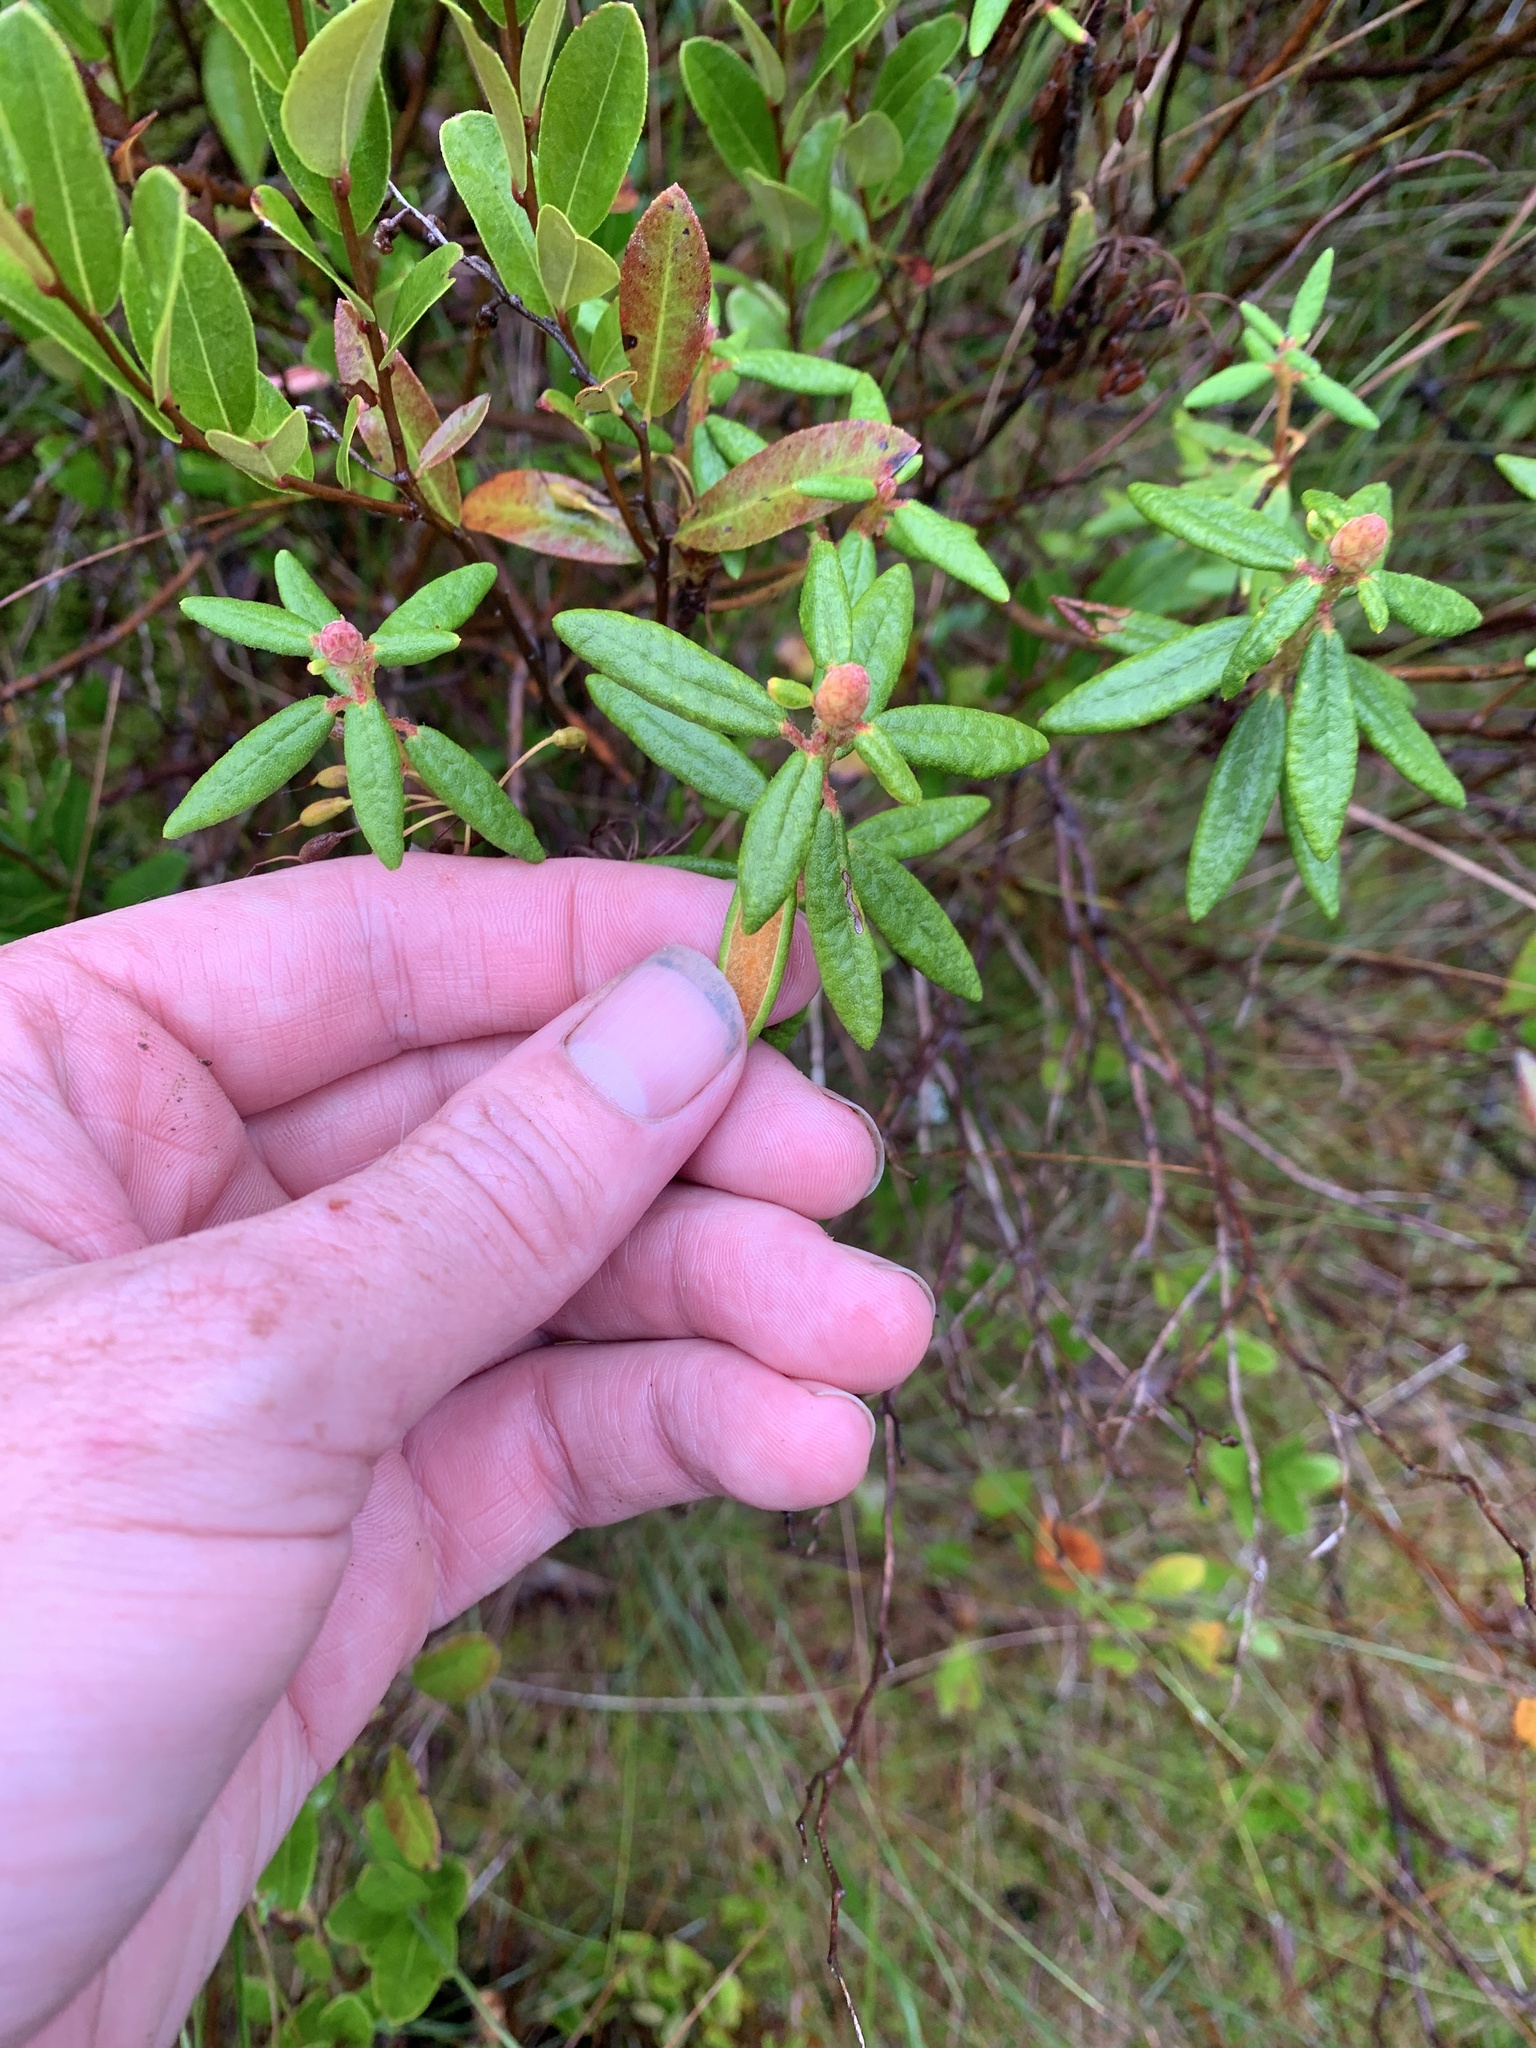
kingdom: Plantae
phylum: Tracheophyta
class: Magnoliopsida
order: Ericales
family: Ericaceae
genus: Rhododendron
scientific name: Rhododendron groenlandicum
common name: Bog labrador tea
